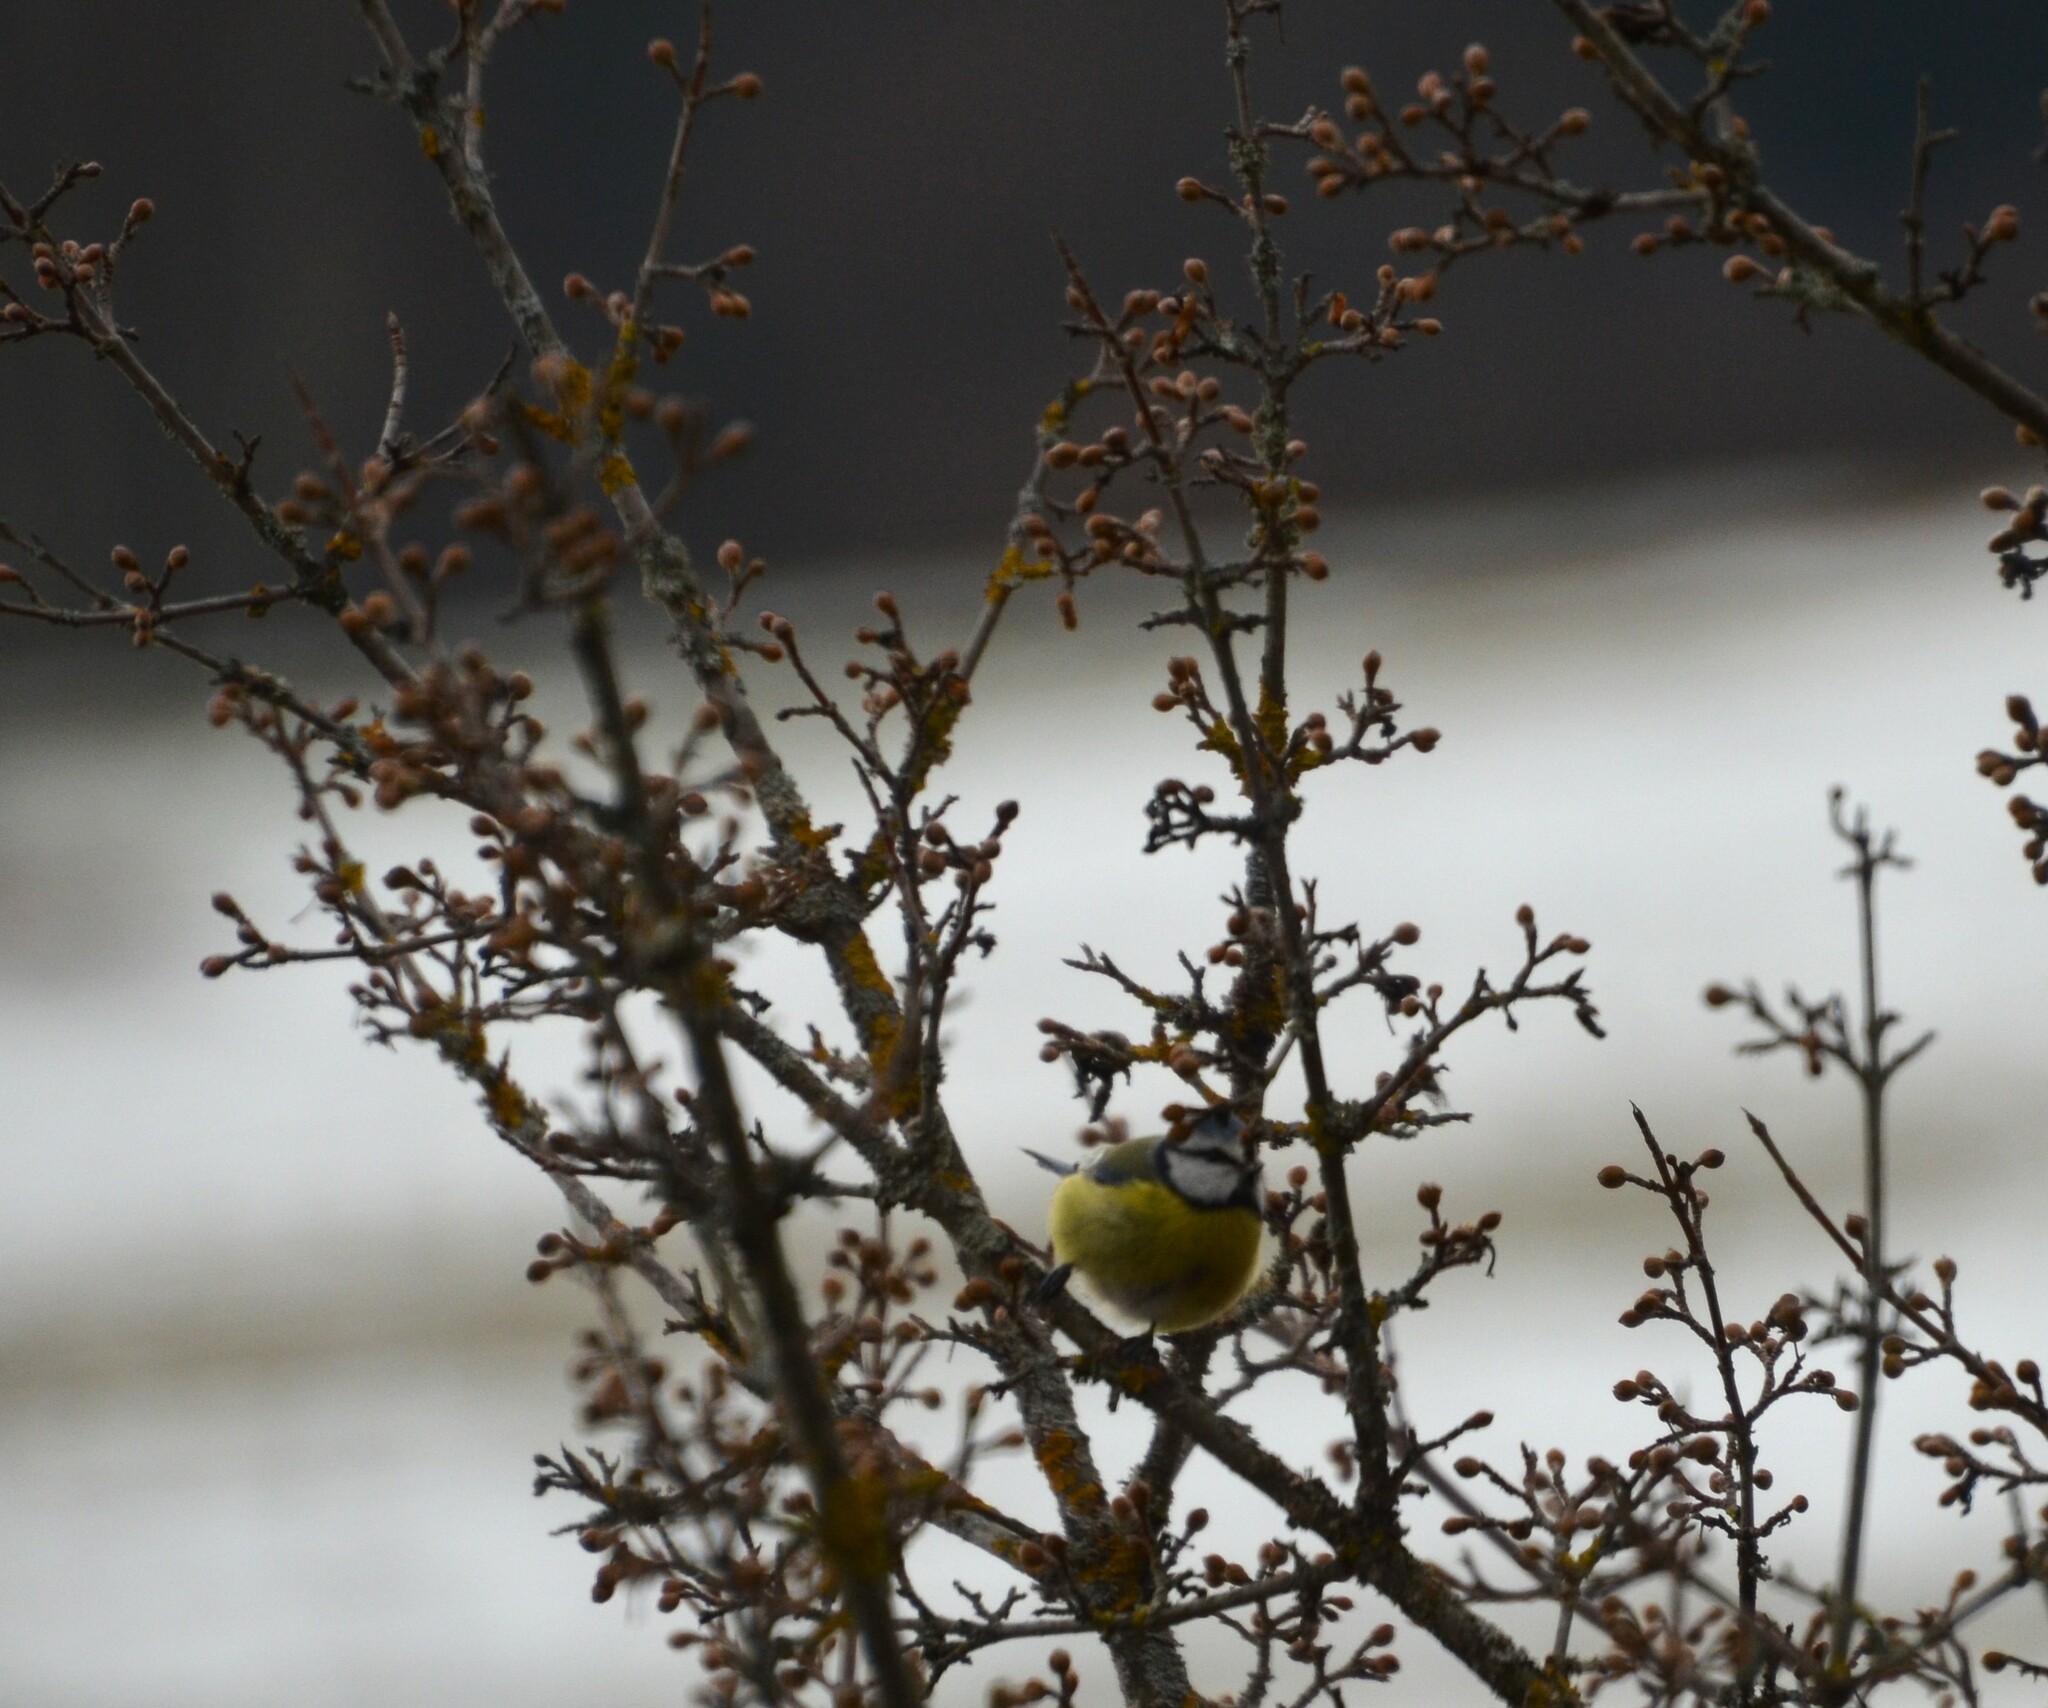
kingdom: Animalia
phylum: Chordata
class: Aves
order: Passeriformes
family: Paridae
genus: Cyanistes
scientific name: Cyanistes caeruleus
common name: Eurasian blue tit
